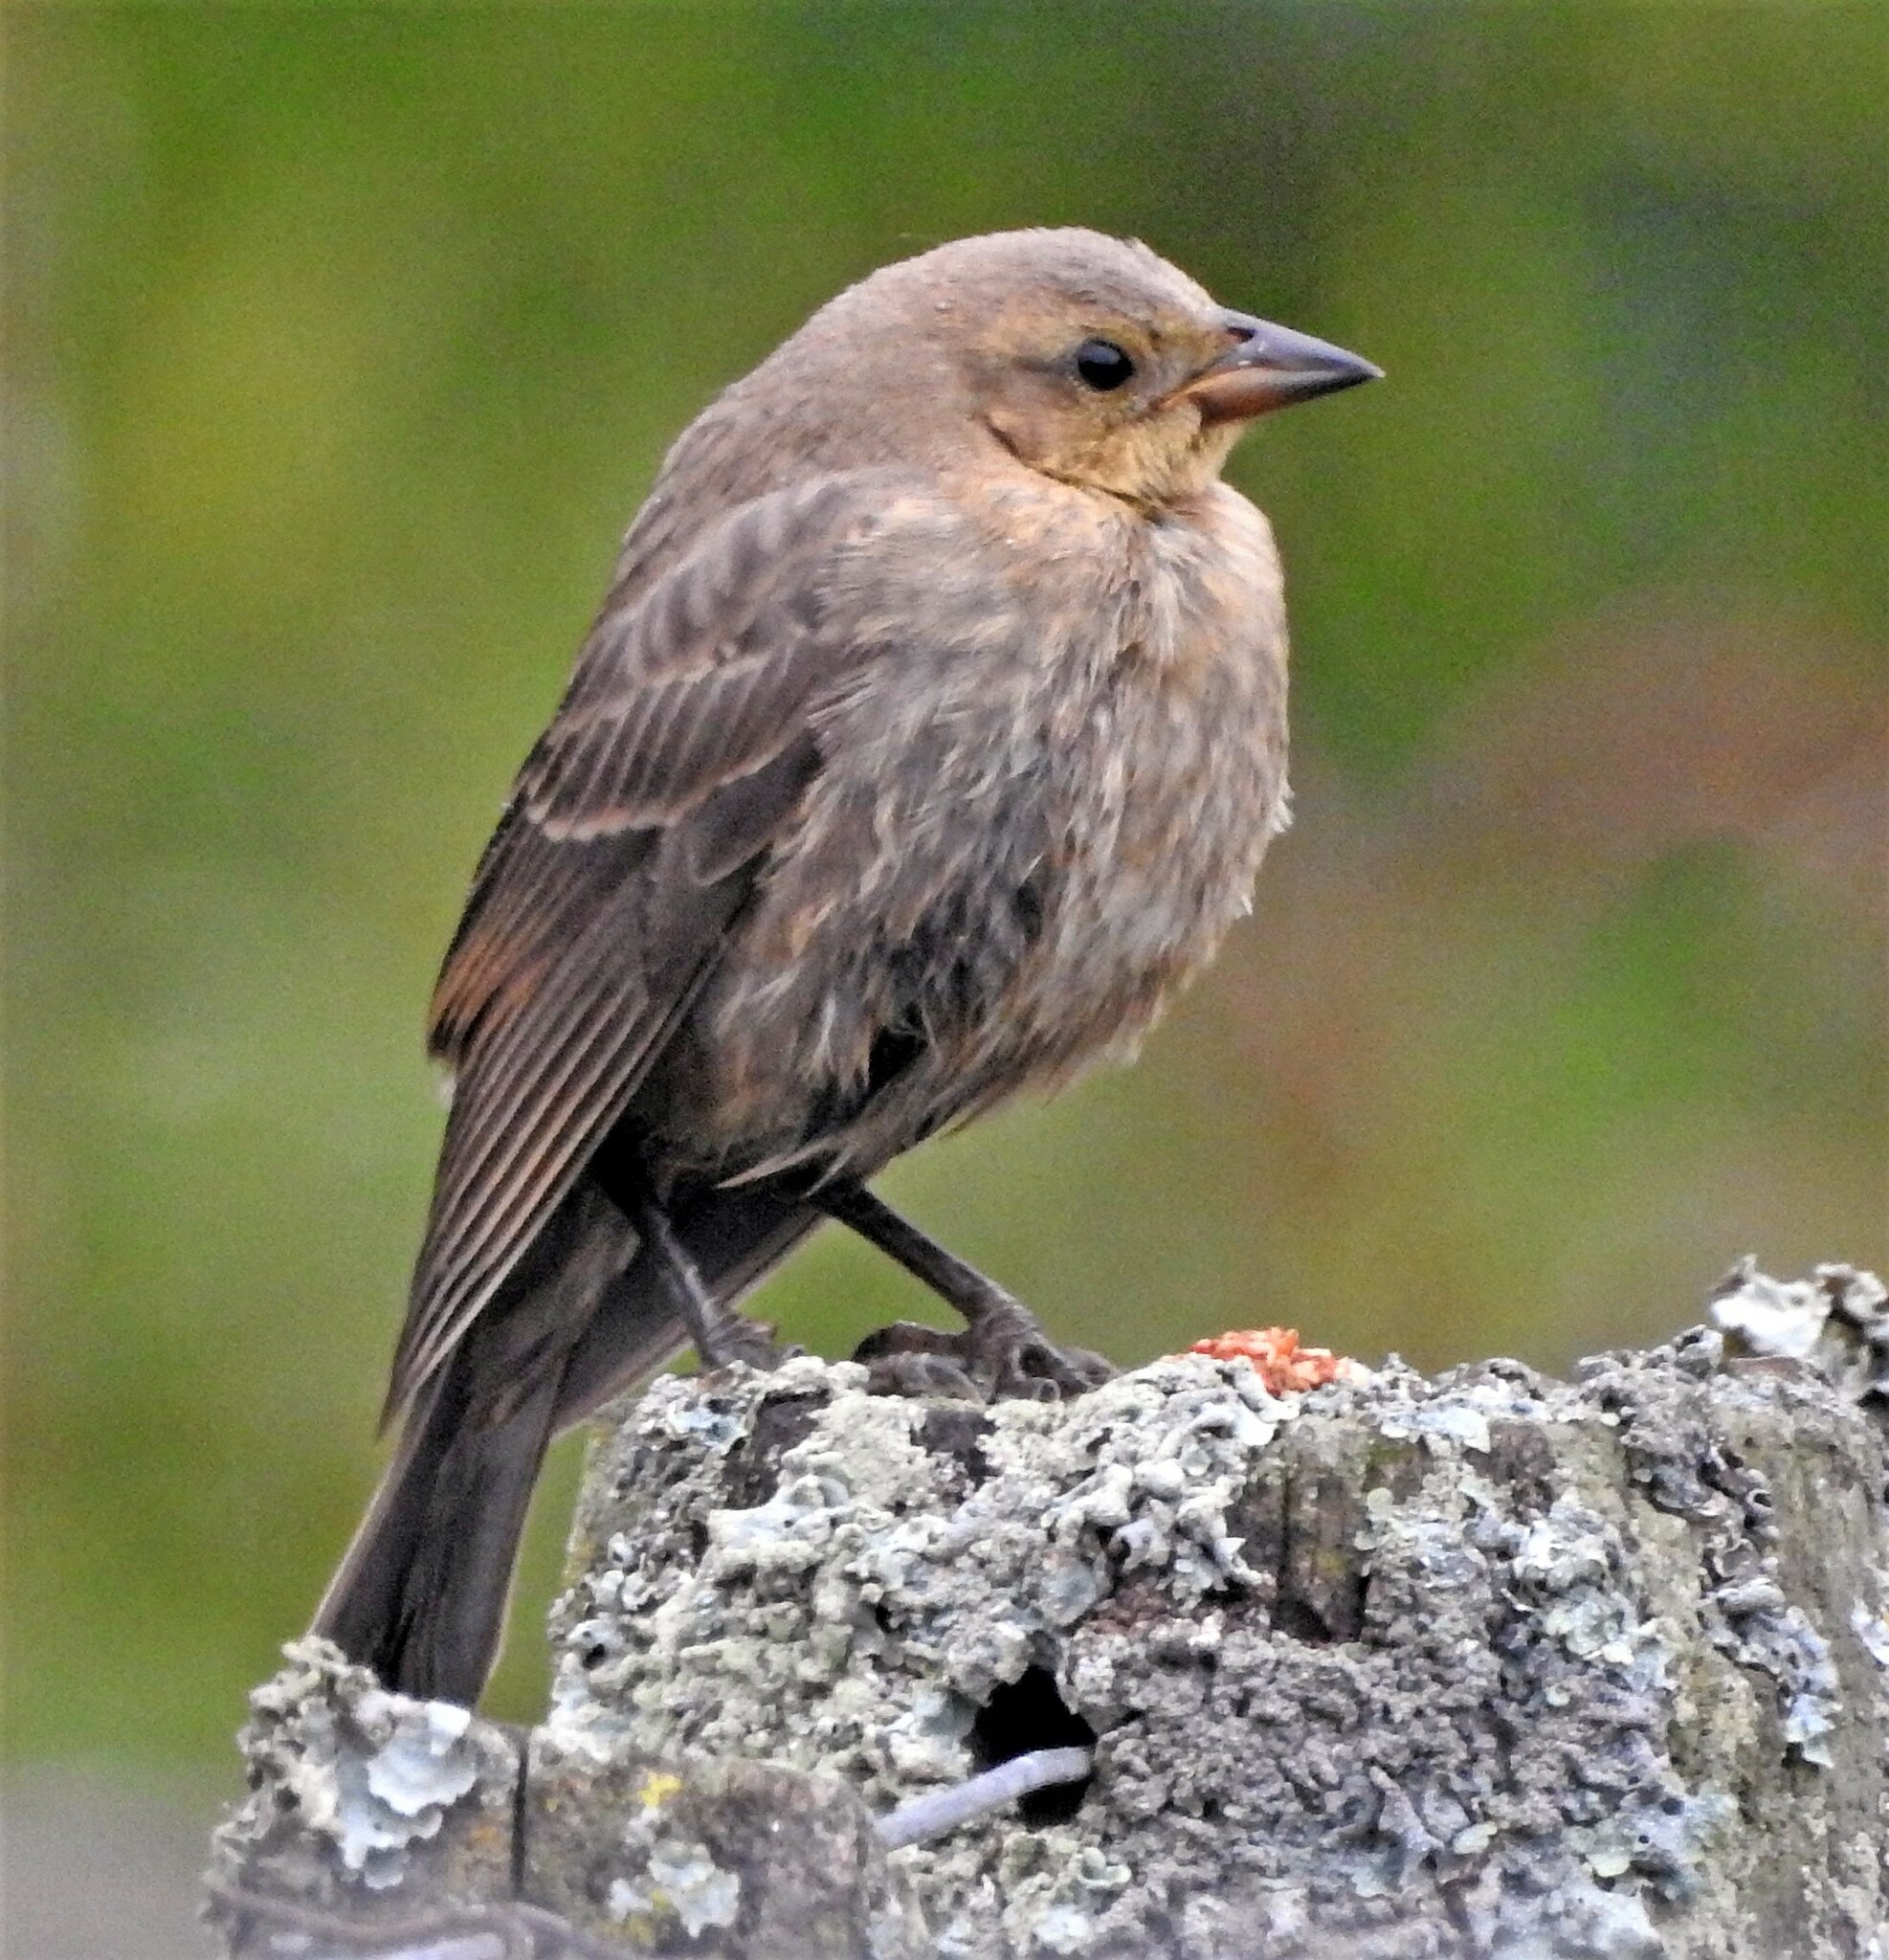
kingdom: Animalia
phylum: Chordata
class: Aves
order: Passeriformes
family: Icteridae
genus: Molothrus
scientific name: Molothrus bonariensis
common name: Shiny cowbird
